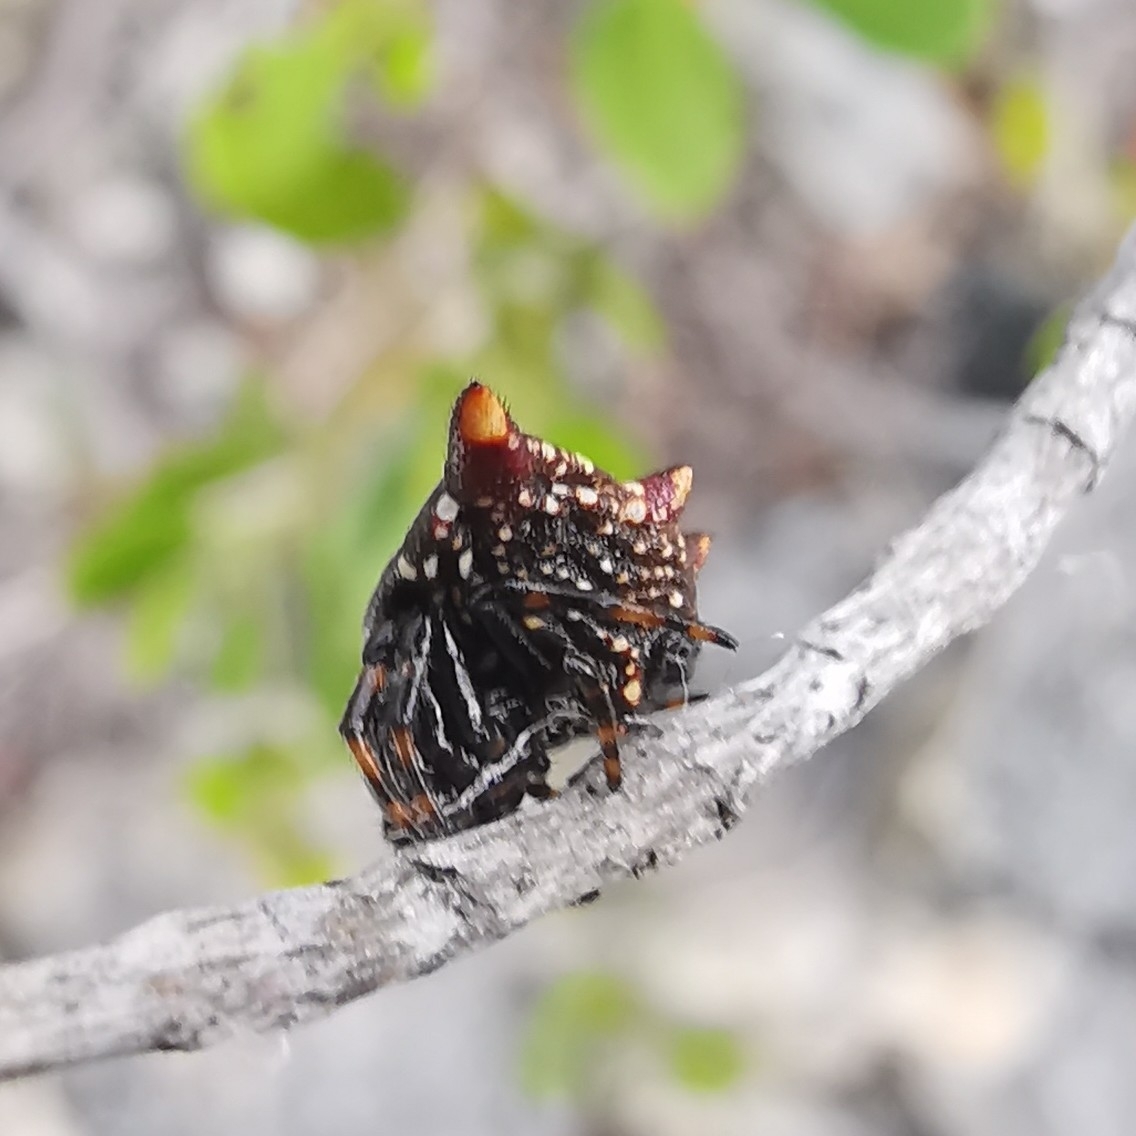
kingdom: Animalia
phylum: Arthropoda
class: Arachnida
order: Araneae
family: Araneidae
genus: Gasteracantha
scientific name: Gasteracantha cancriformis
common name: Orb weavers
